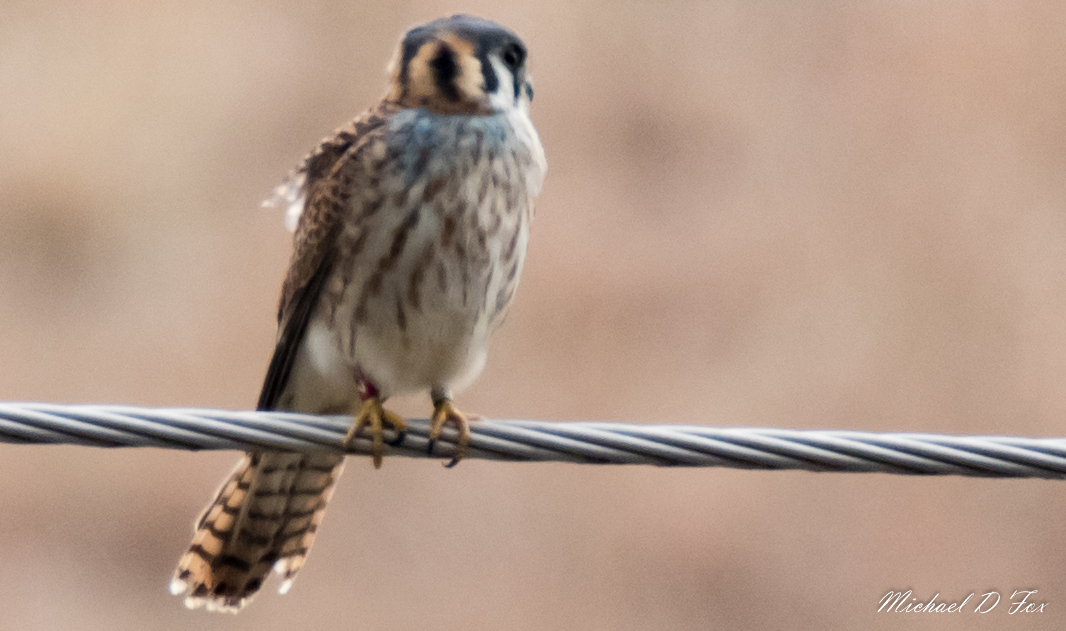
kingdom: Animalia
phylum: Chordata
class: Aves
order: Falconiformes
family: Falconidae
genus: Falco
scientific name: Falco sparverius
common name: American kestrel
